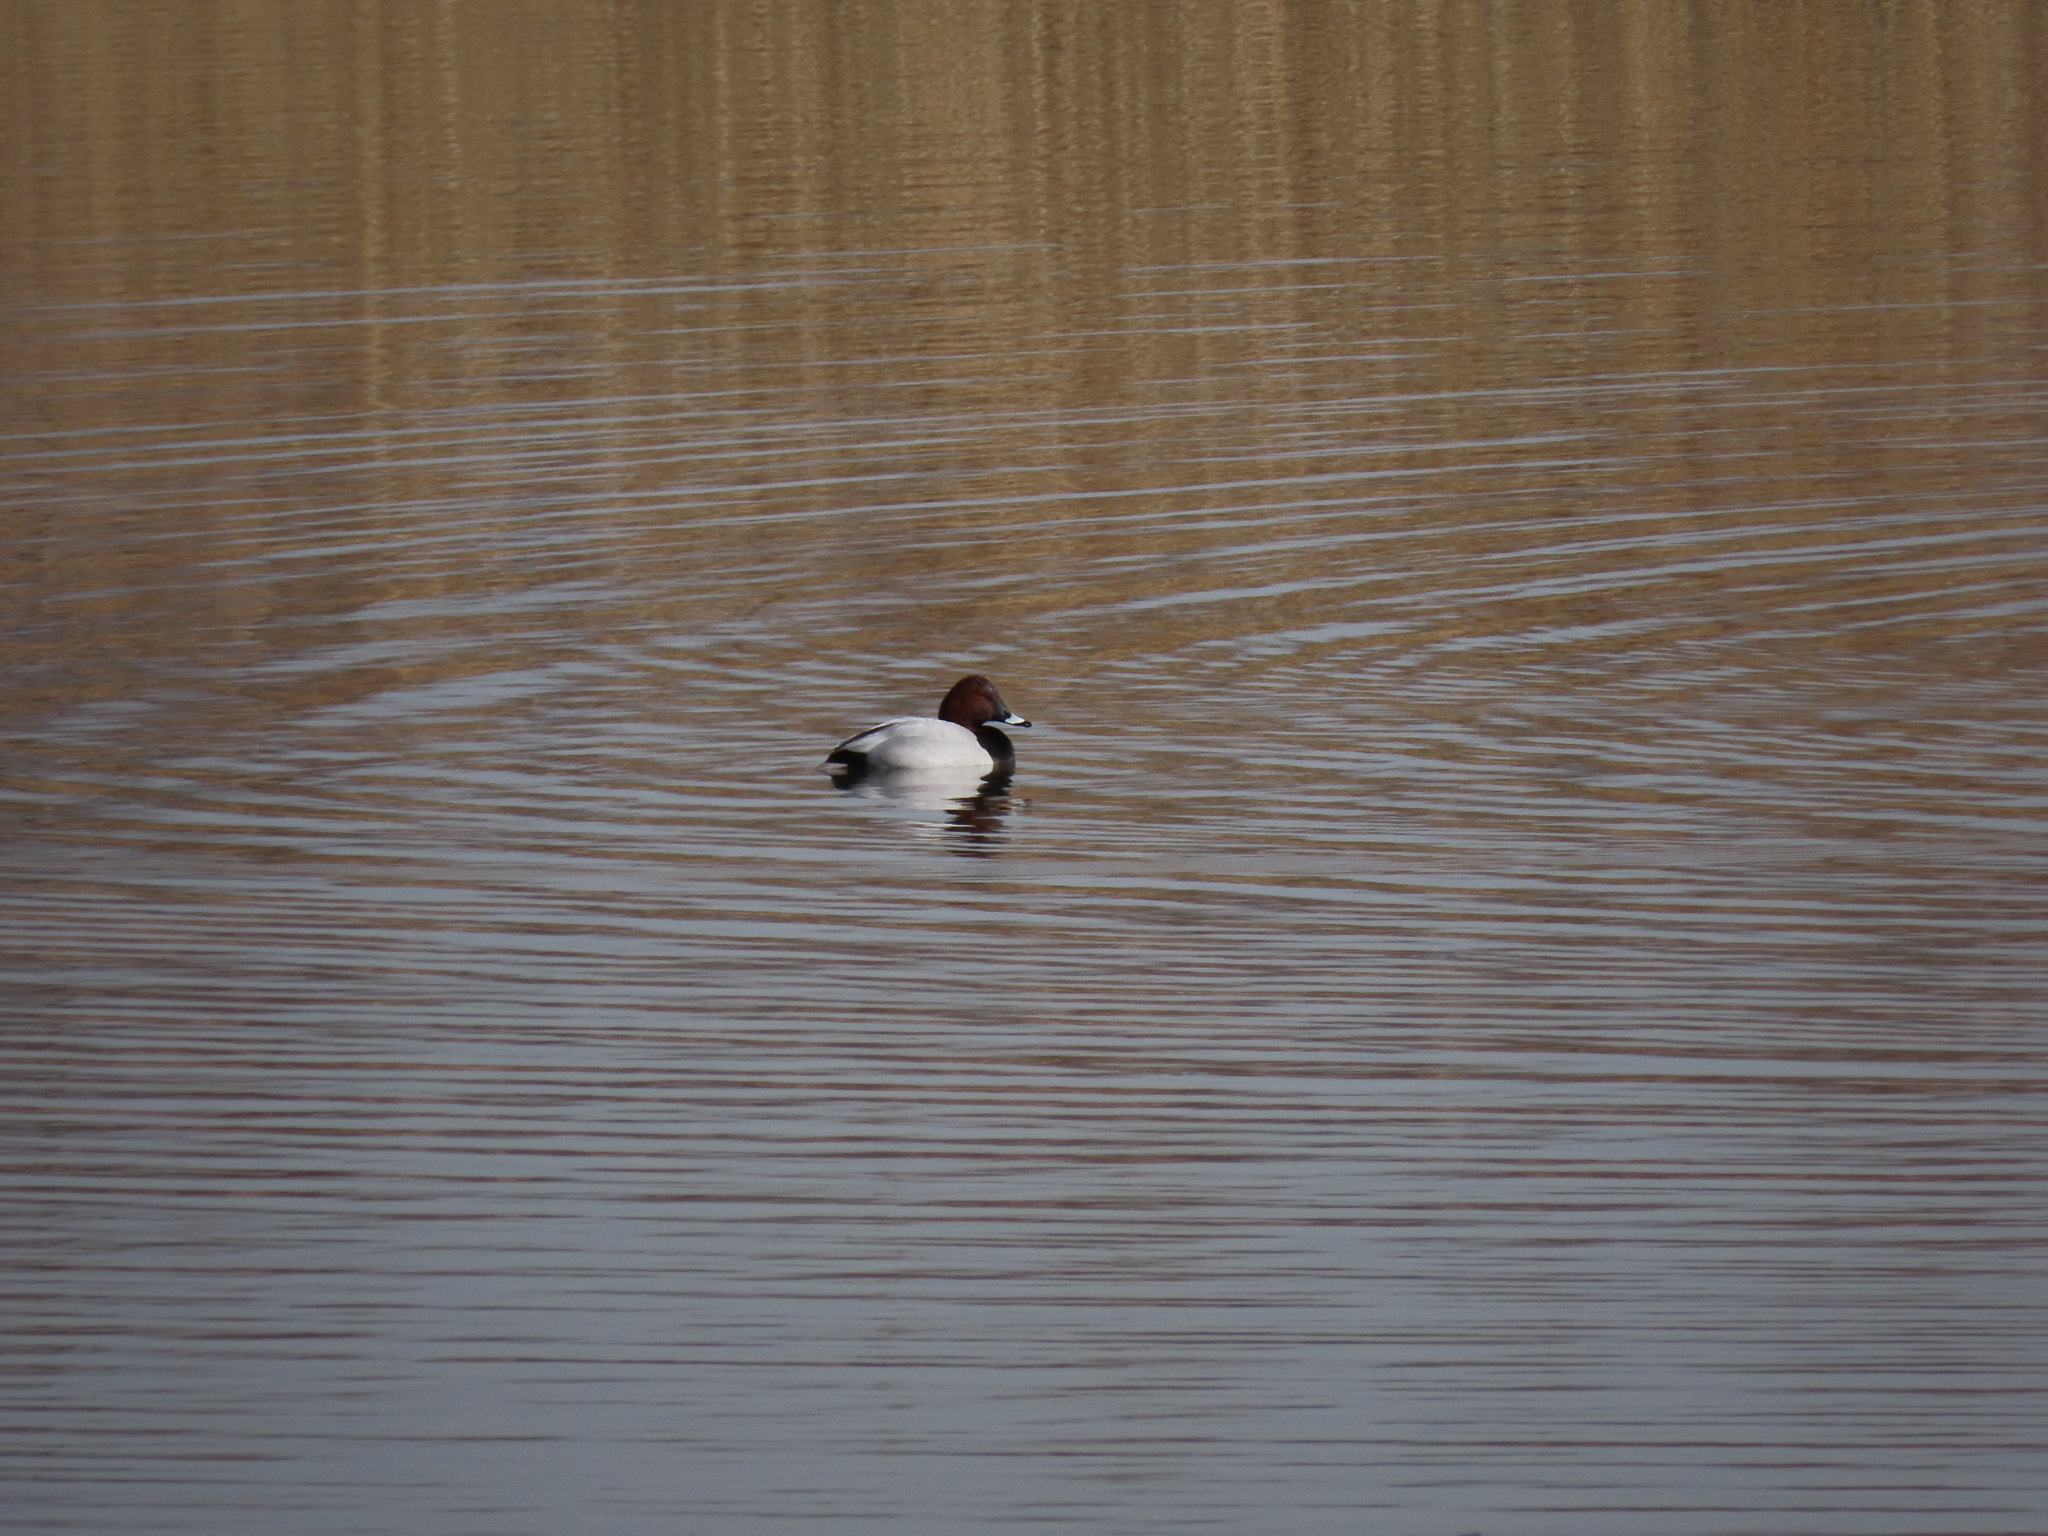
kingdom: Animalia
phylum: Chordata
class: Aves
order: Anseriformes
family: Anatidae
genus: Aythya
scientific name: Aythya ferina
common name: Common pochard
